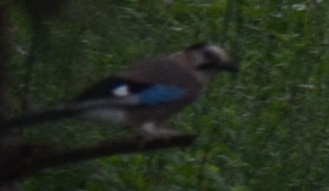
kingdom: Animalia
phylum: Chordata
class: Aves
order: Passeriformes
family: Corvidae
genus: Garrulus
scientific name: Garrulus glandarius
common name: Eurasian jay
